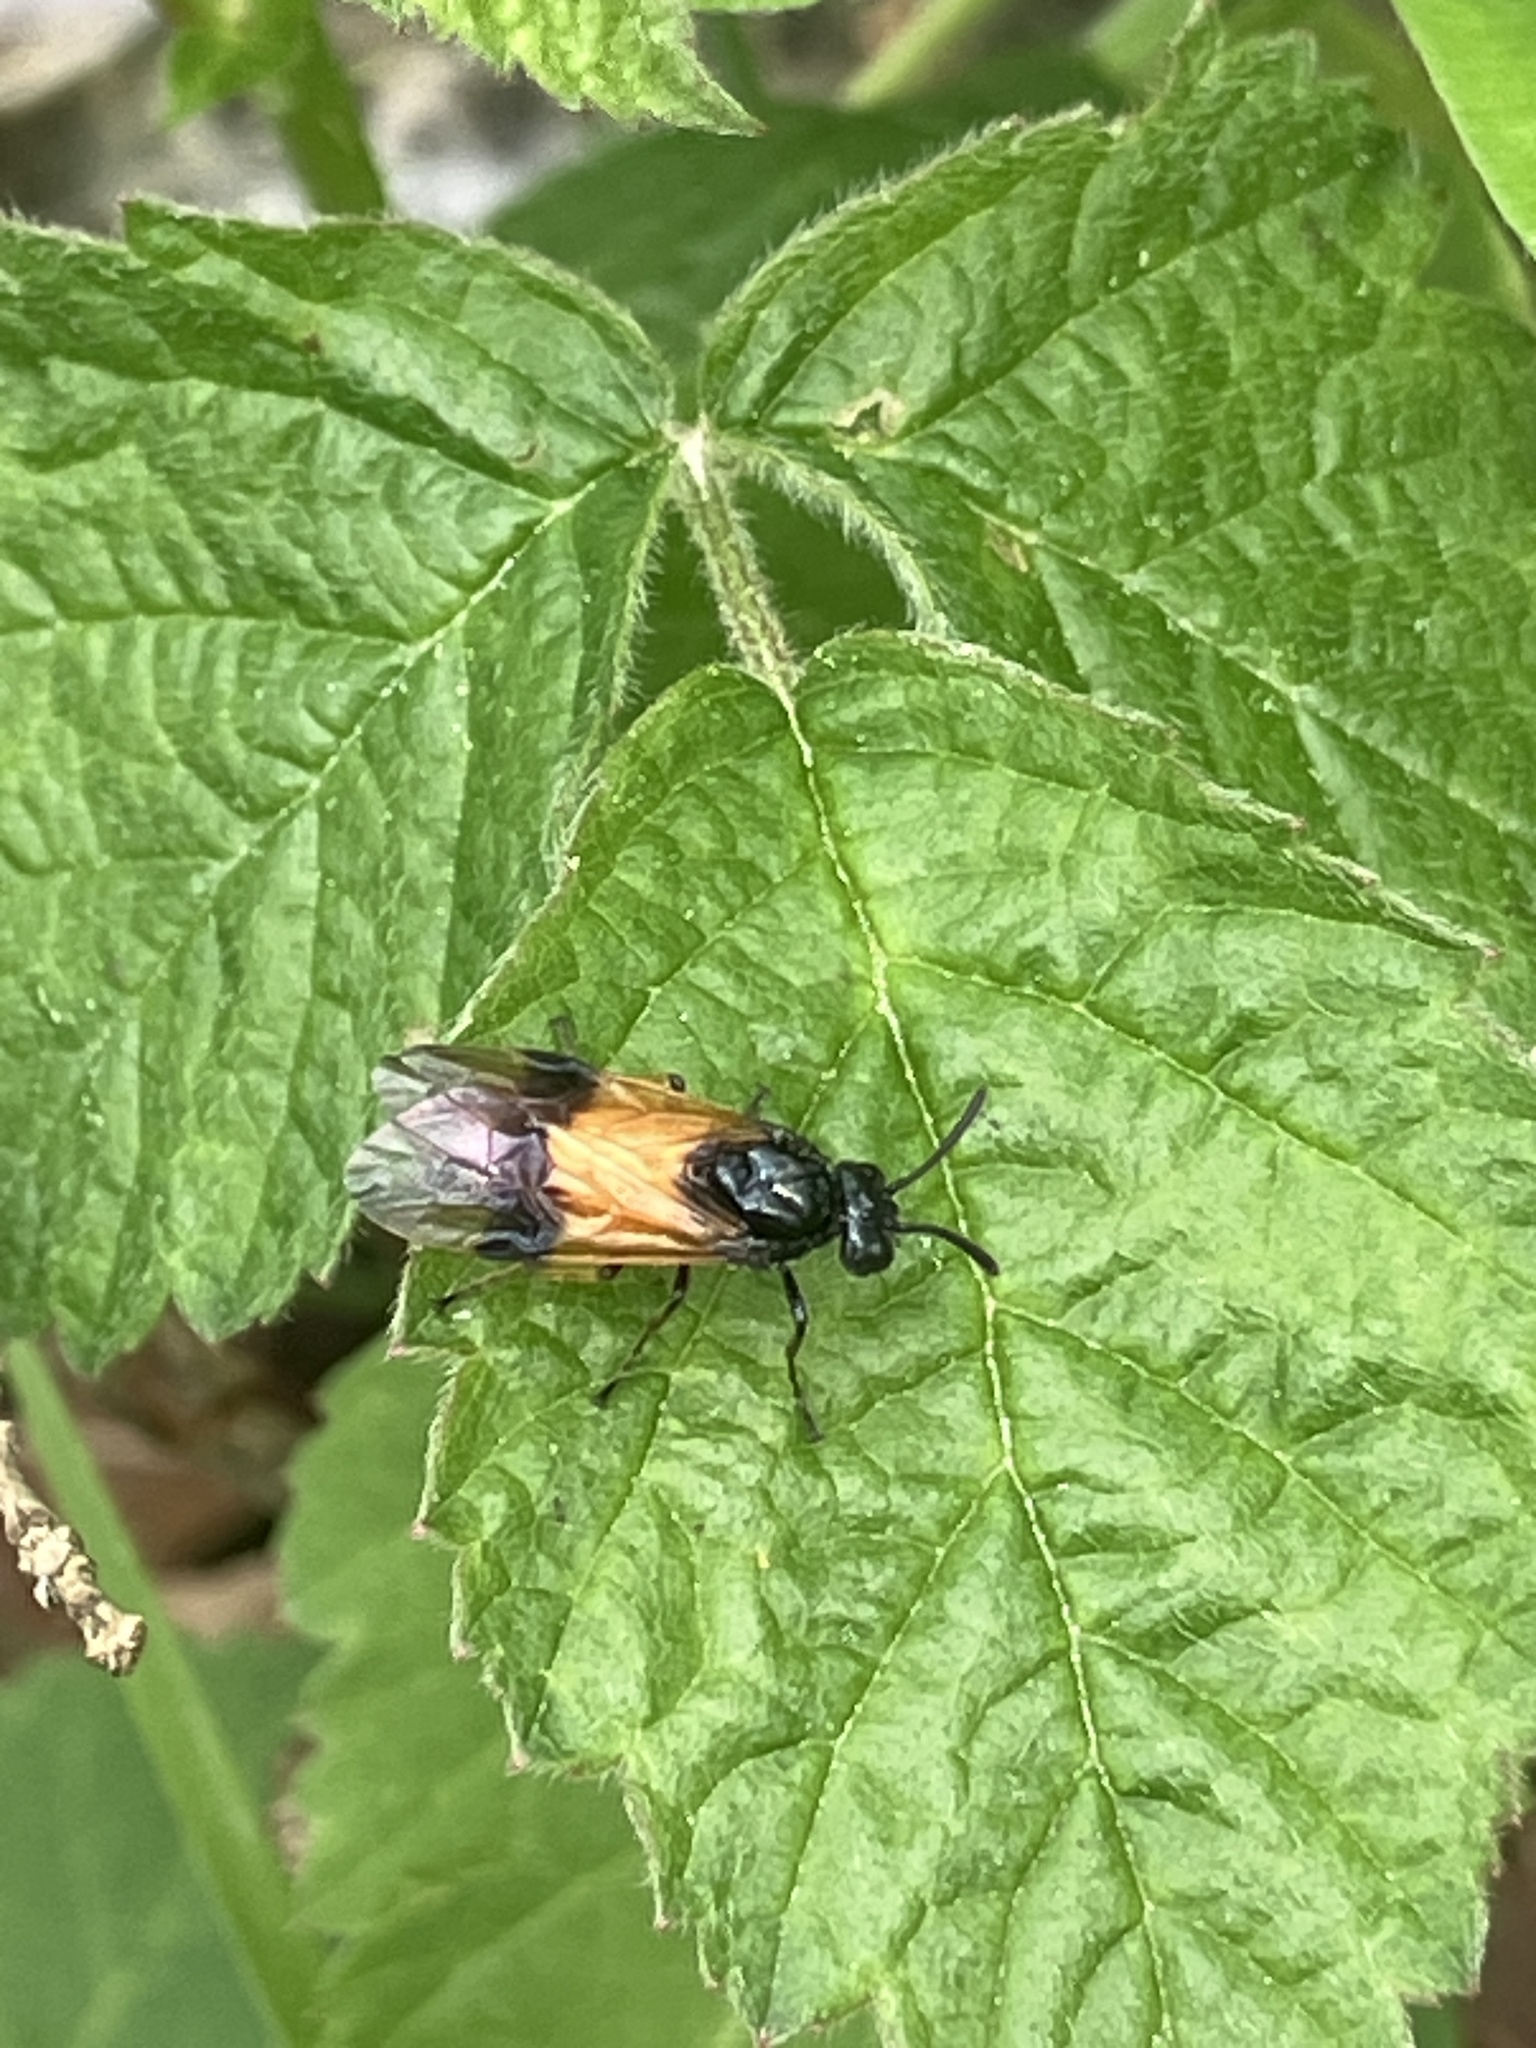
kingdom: Animalia
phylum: Arthropoda
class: Insecta
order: Hymenoptera
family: Argidae
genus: Arge
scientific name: Arge cyanocrocea
